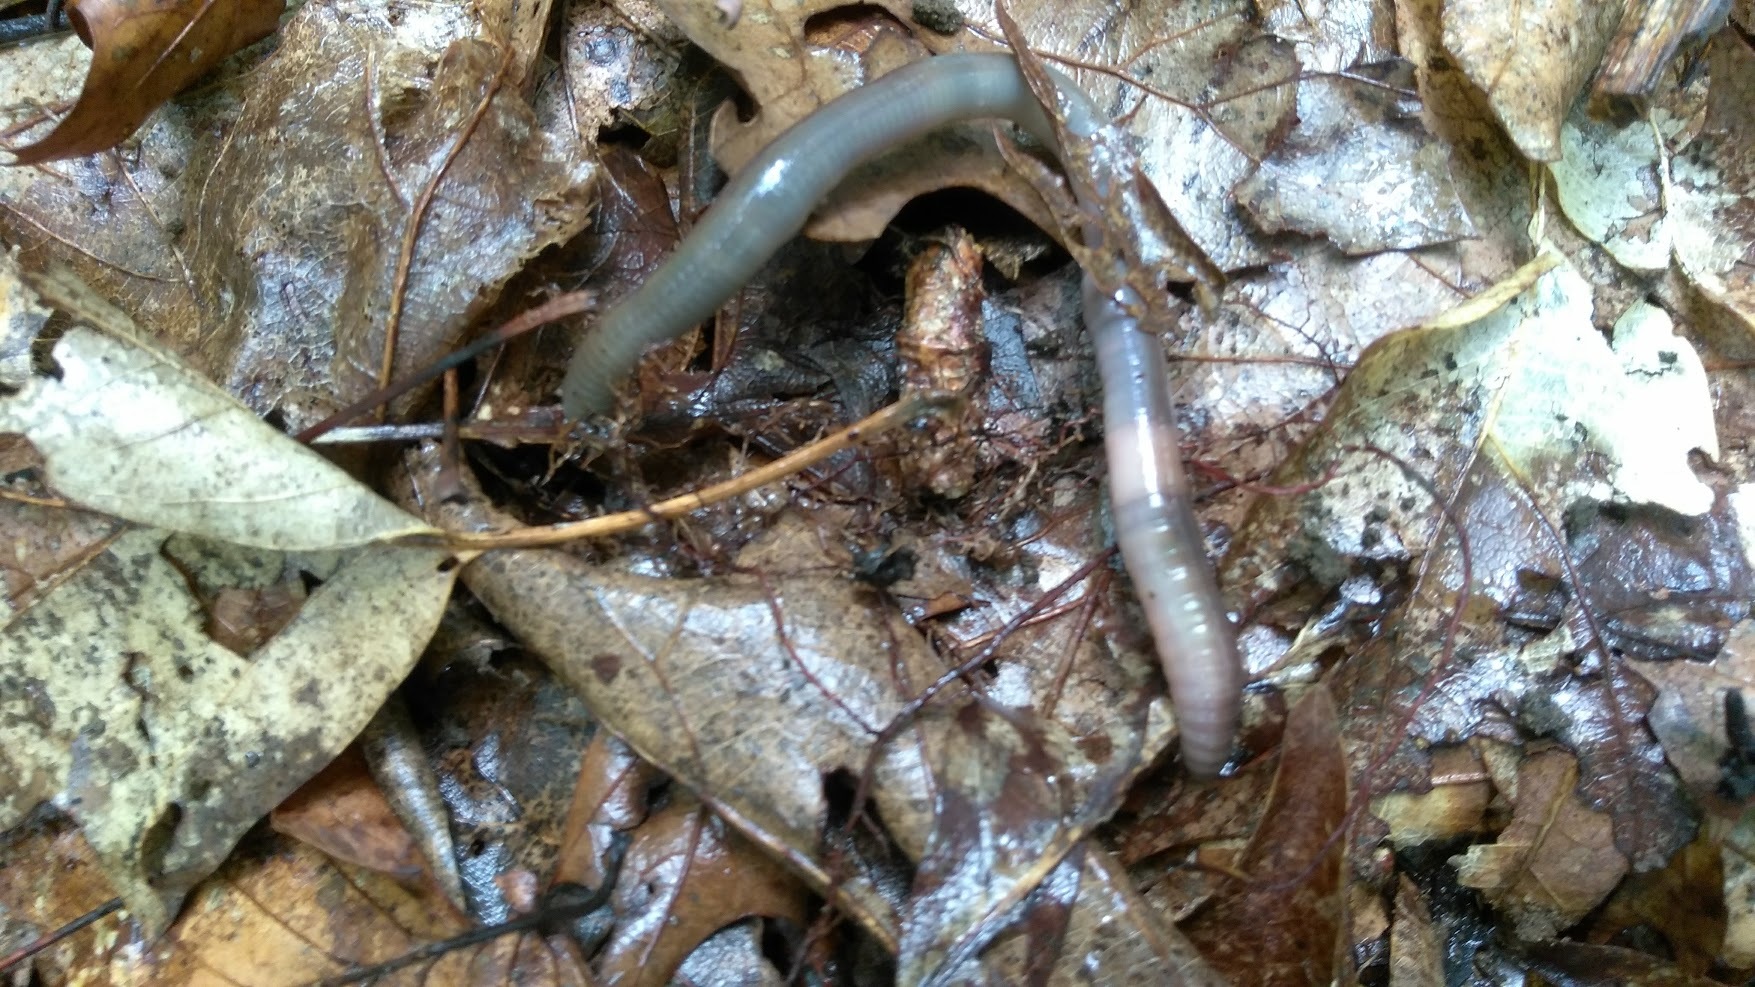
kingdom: Animalia
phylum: Annelida
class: Clitellata
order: Crassiclitellata
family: Megascolecidae
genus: Amynthas
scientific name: Amynthas
